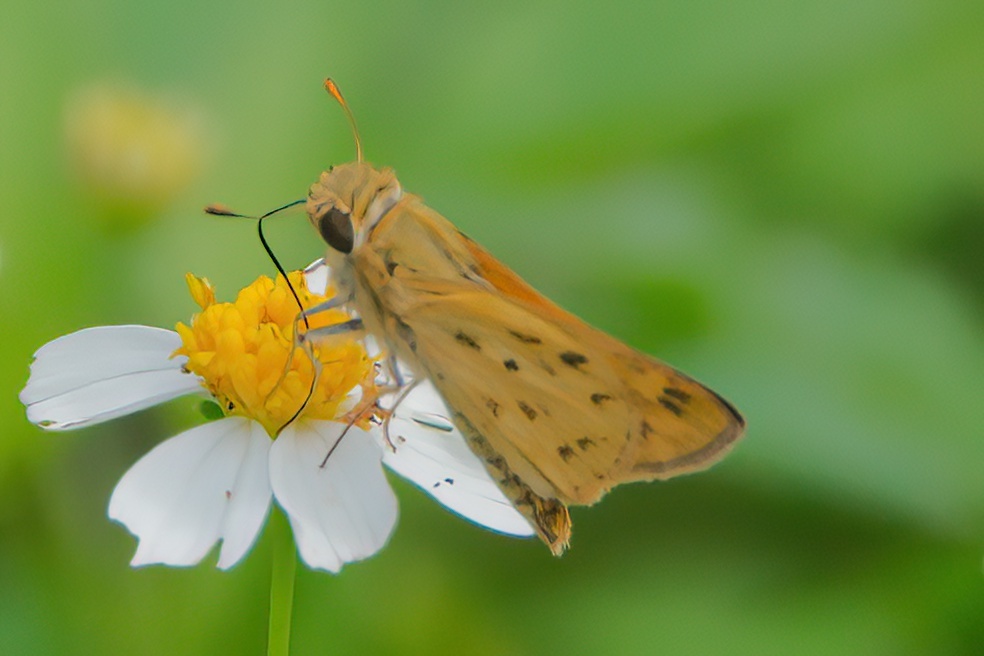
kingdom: Animalia
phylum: Arthropoda
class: Insecta
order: Lepidoptera
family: Hesperiidae
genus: Hylephila
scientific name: Hylephila phyleus
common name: Fiery skipper
